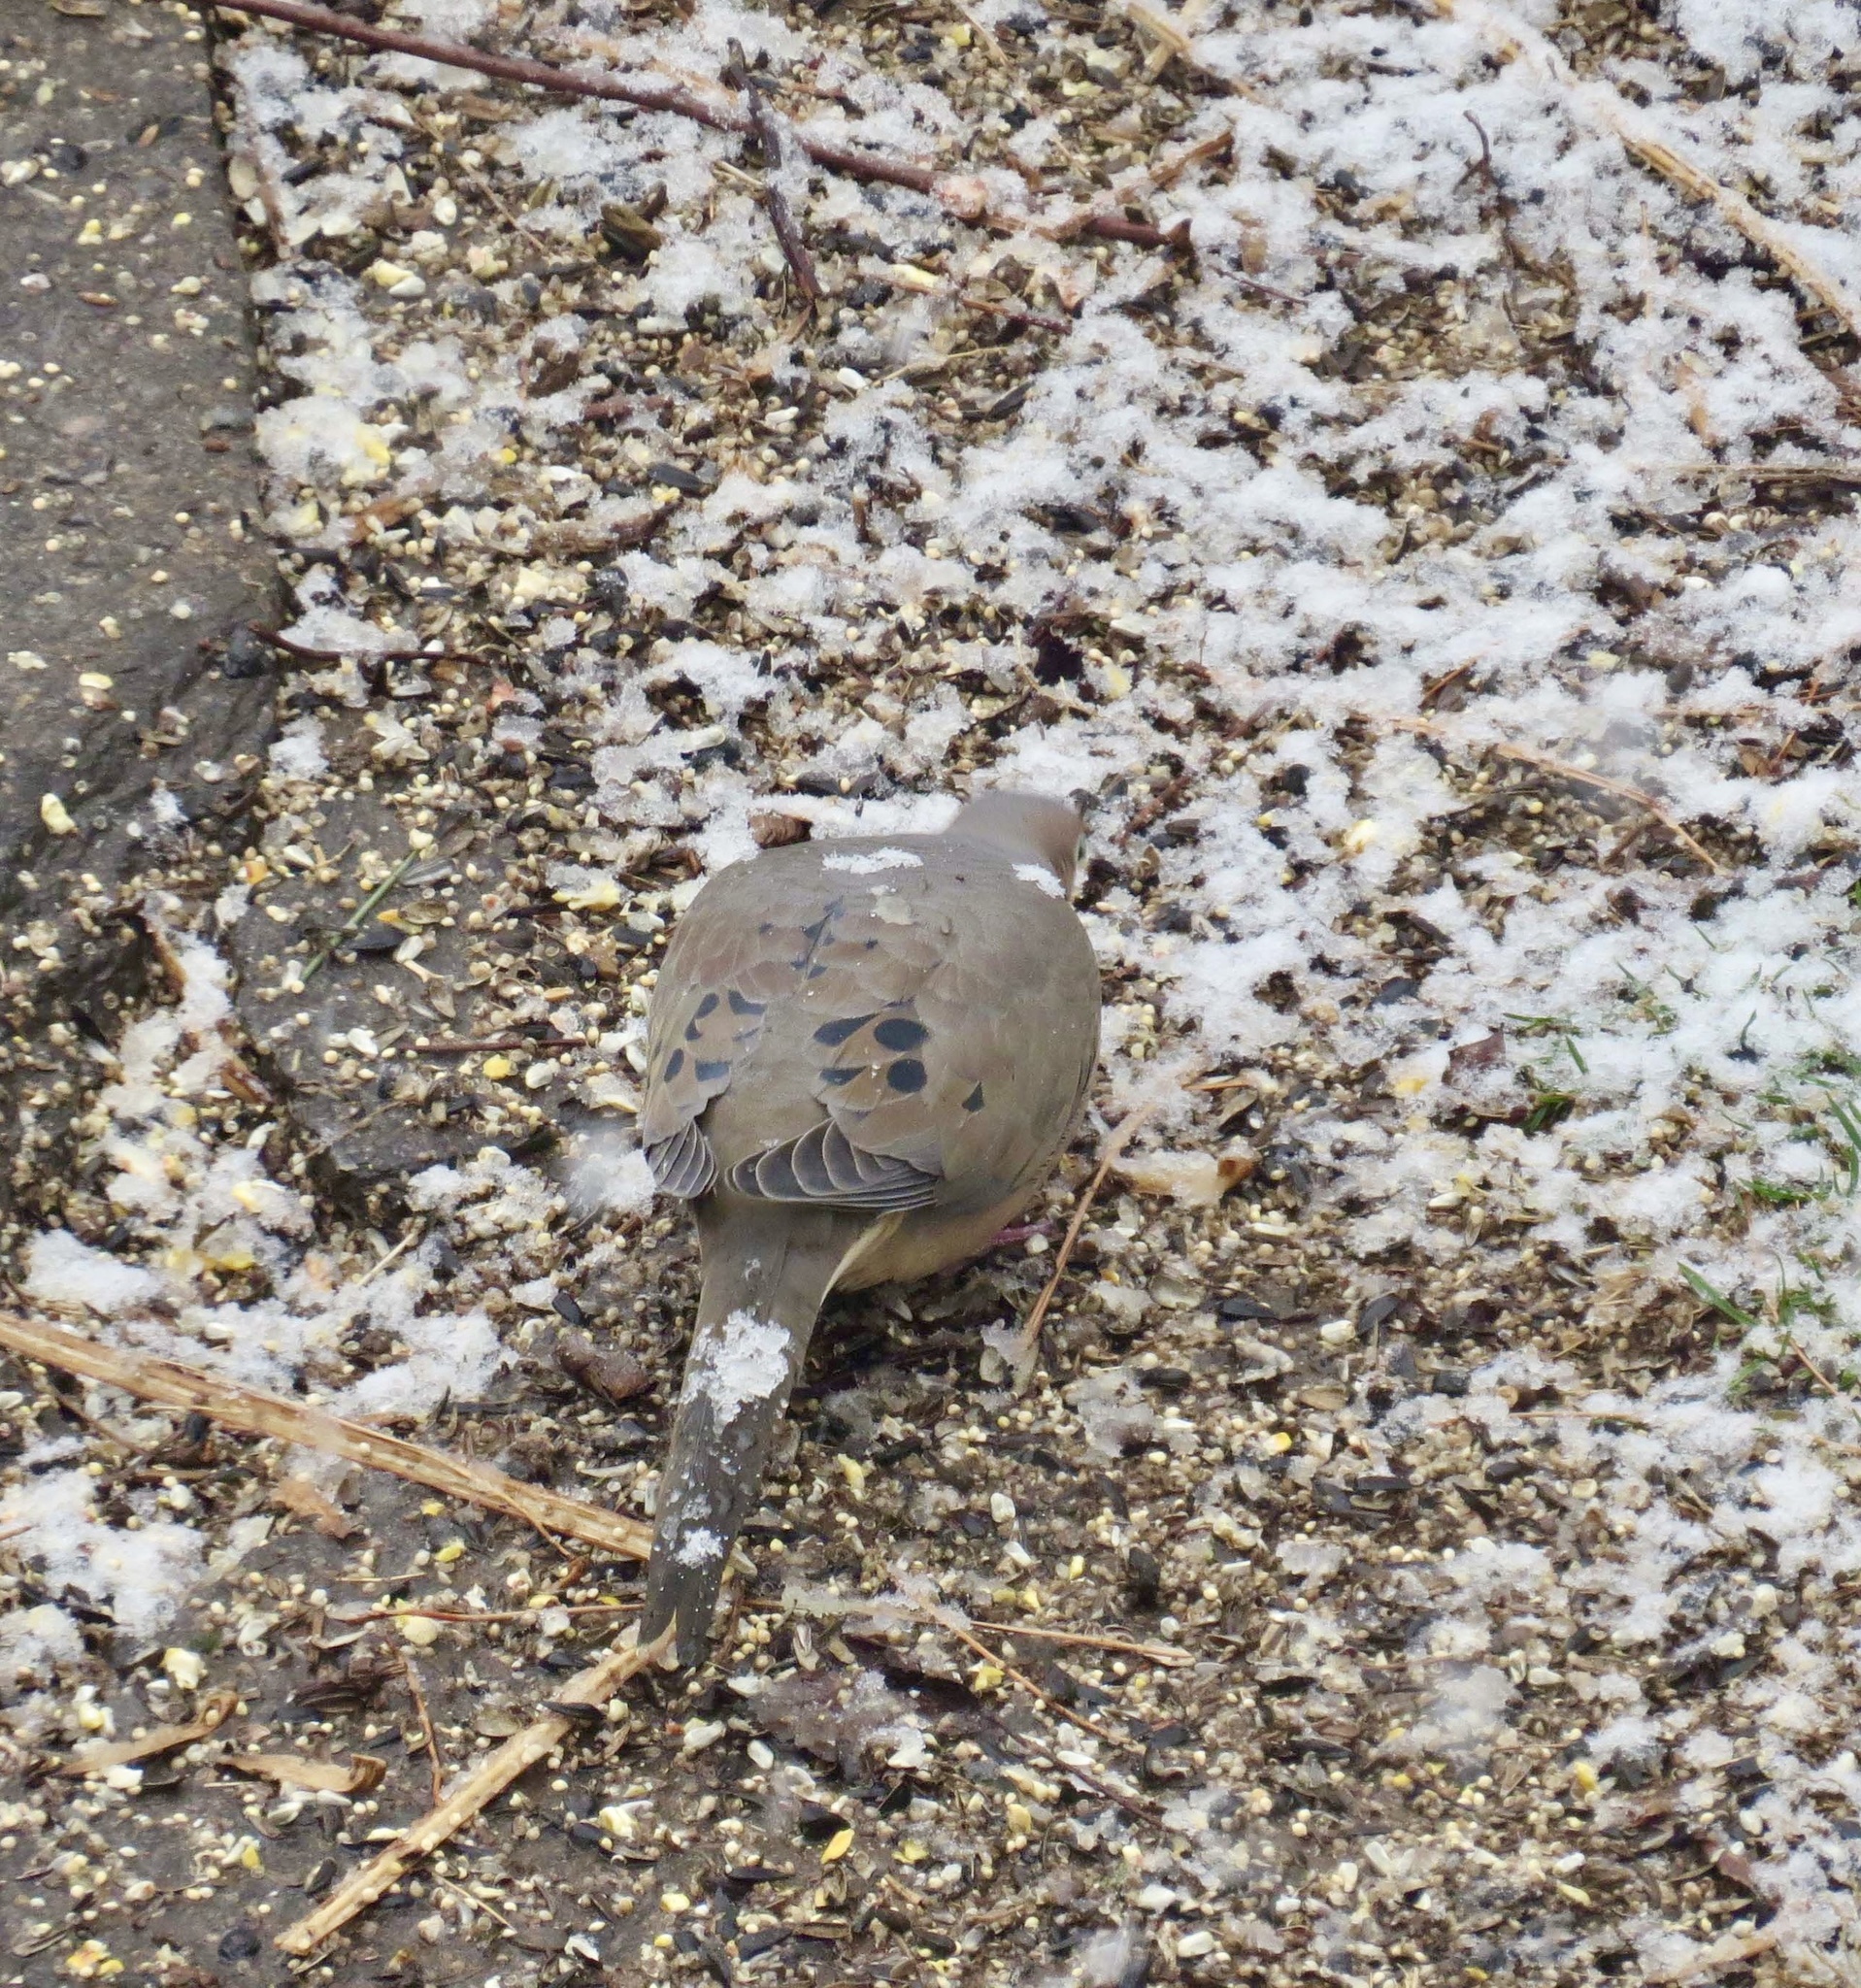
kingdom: Animalia
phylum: Chordata
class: Aves
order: Columbiformes
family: Columbidae
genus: Zenaida
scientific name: Zenaida macroura
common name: Mourning dove
